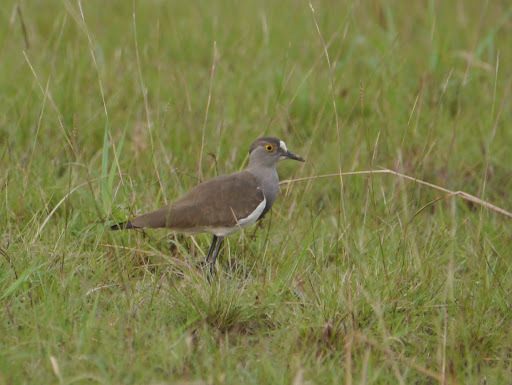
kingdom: Animalia
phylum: Chordata
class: Aves
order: Charadriiformes
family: Charadriidae
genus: Vanellus
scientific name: Vanellus lugubris
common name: Senegal lapwing
